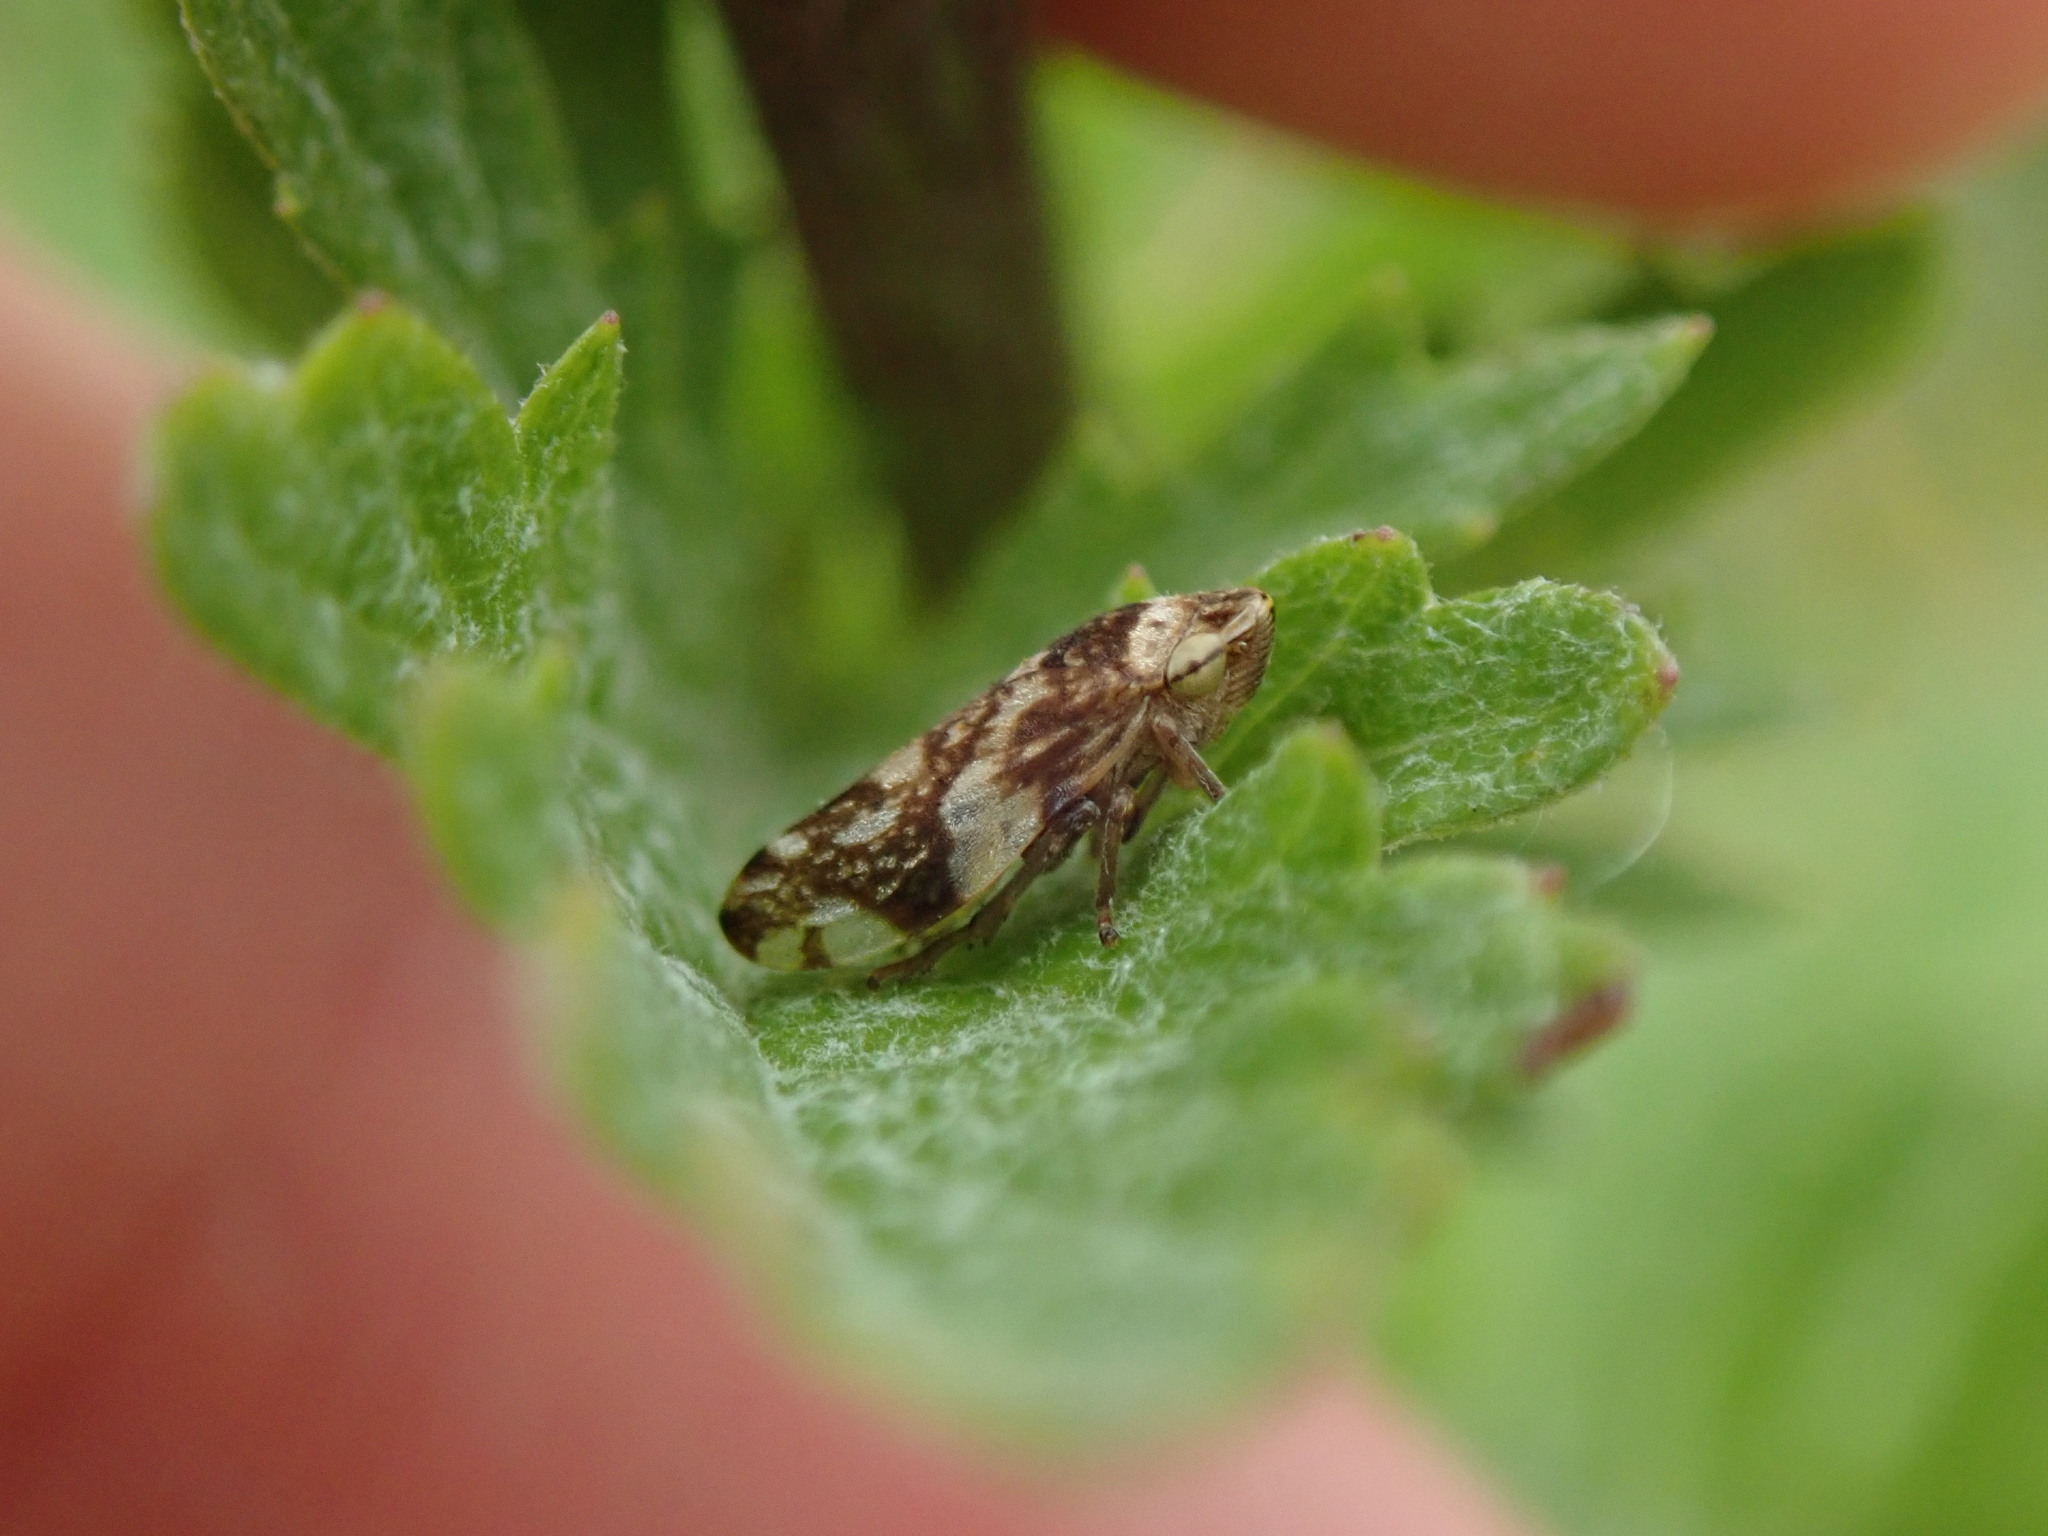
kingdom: Animalia
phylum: Arthropoda
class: Insecta
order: Hemiptera
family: Aphrophoridae
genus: Philaenus
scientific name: Philaenus spumarius
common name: Meadow spittlebug
